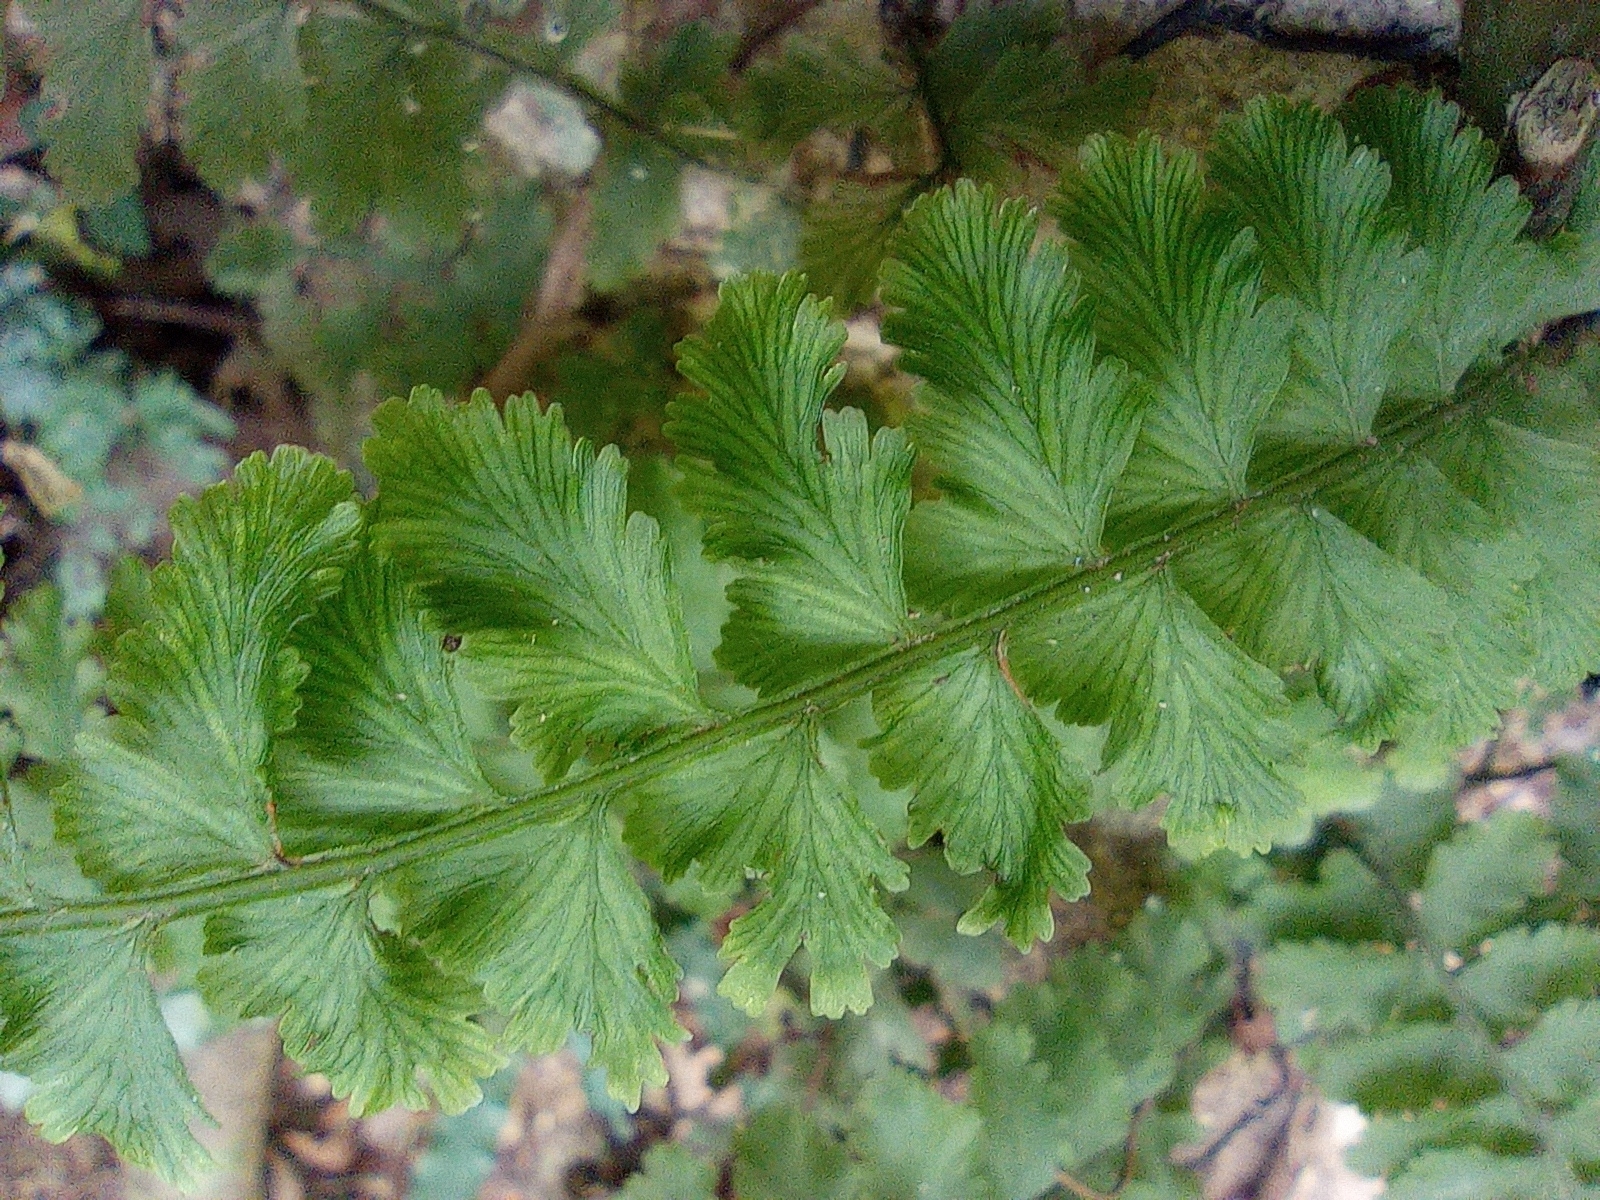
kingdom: Plantae
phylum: Tracheophyta
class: Polypodiopsida
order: Hymenophyllales
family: Hymenophyllaceae
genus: Vandenboschia
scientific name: Vandenboschia auriculata
